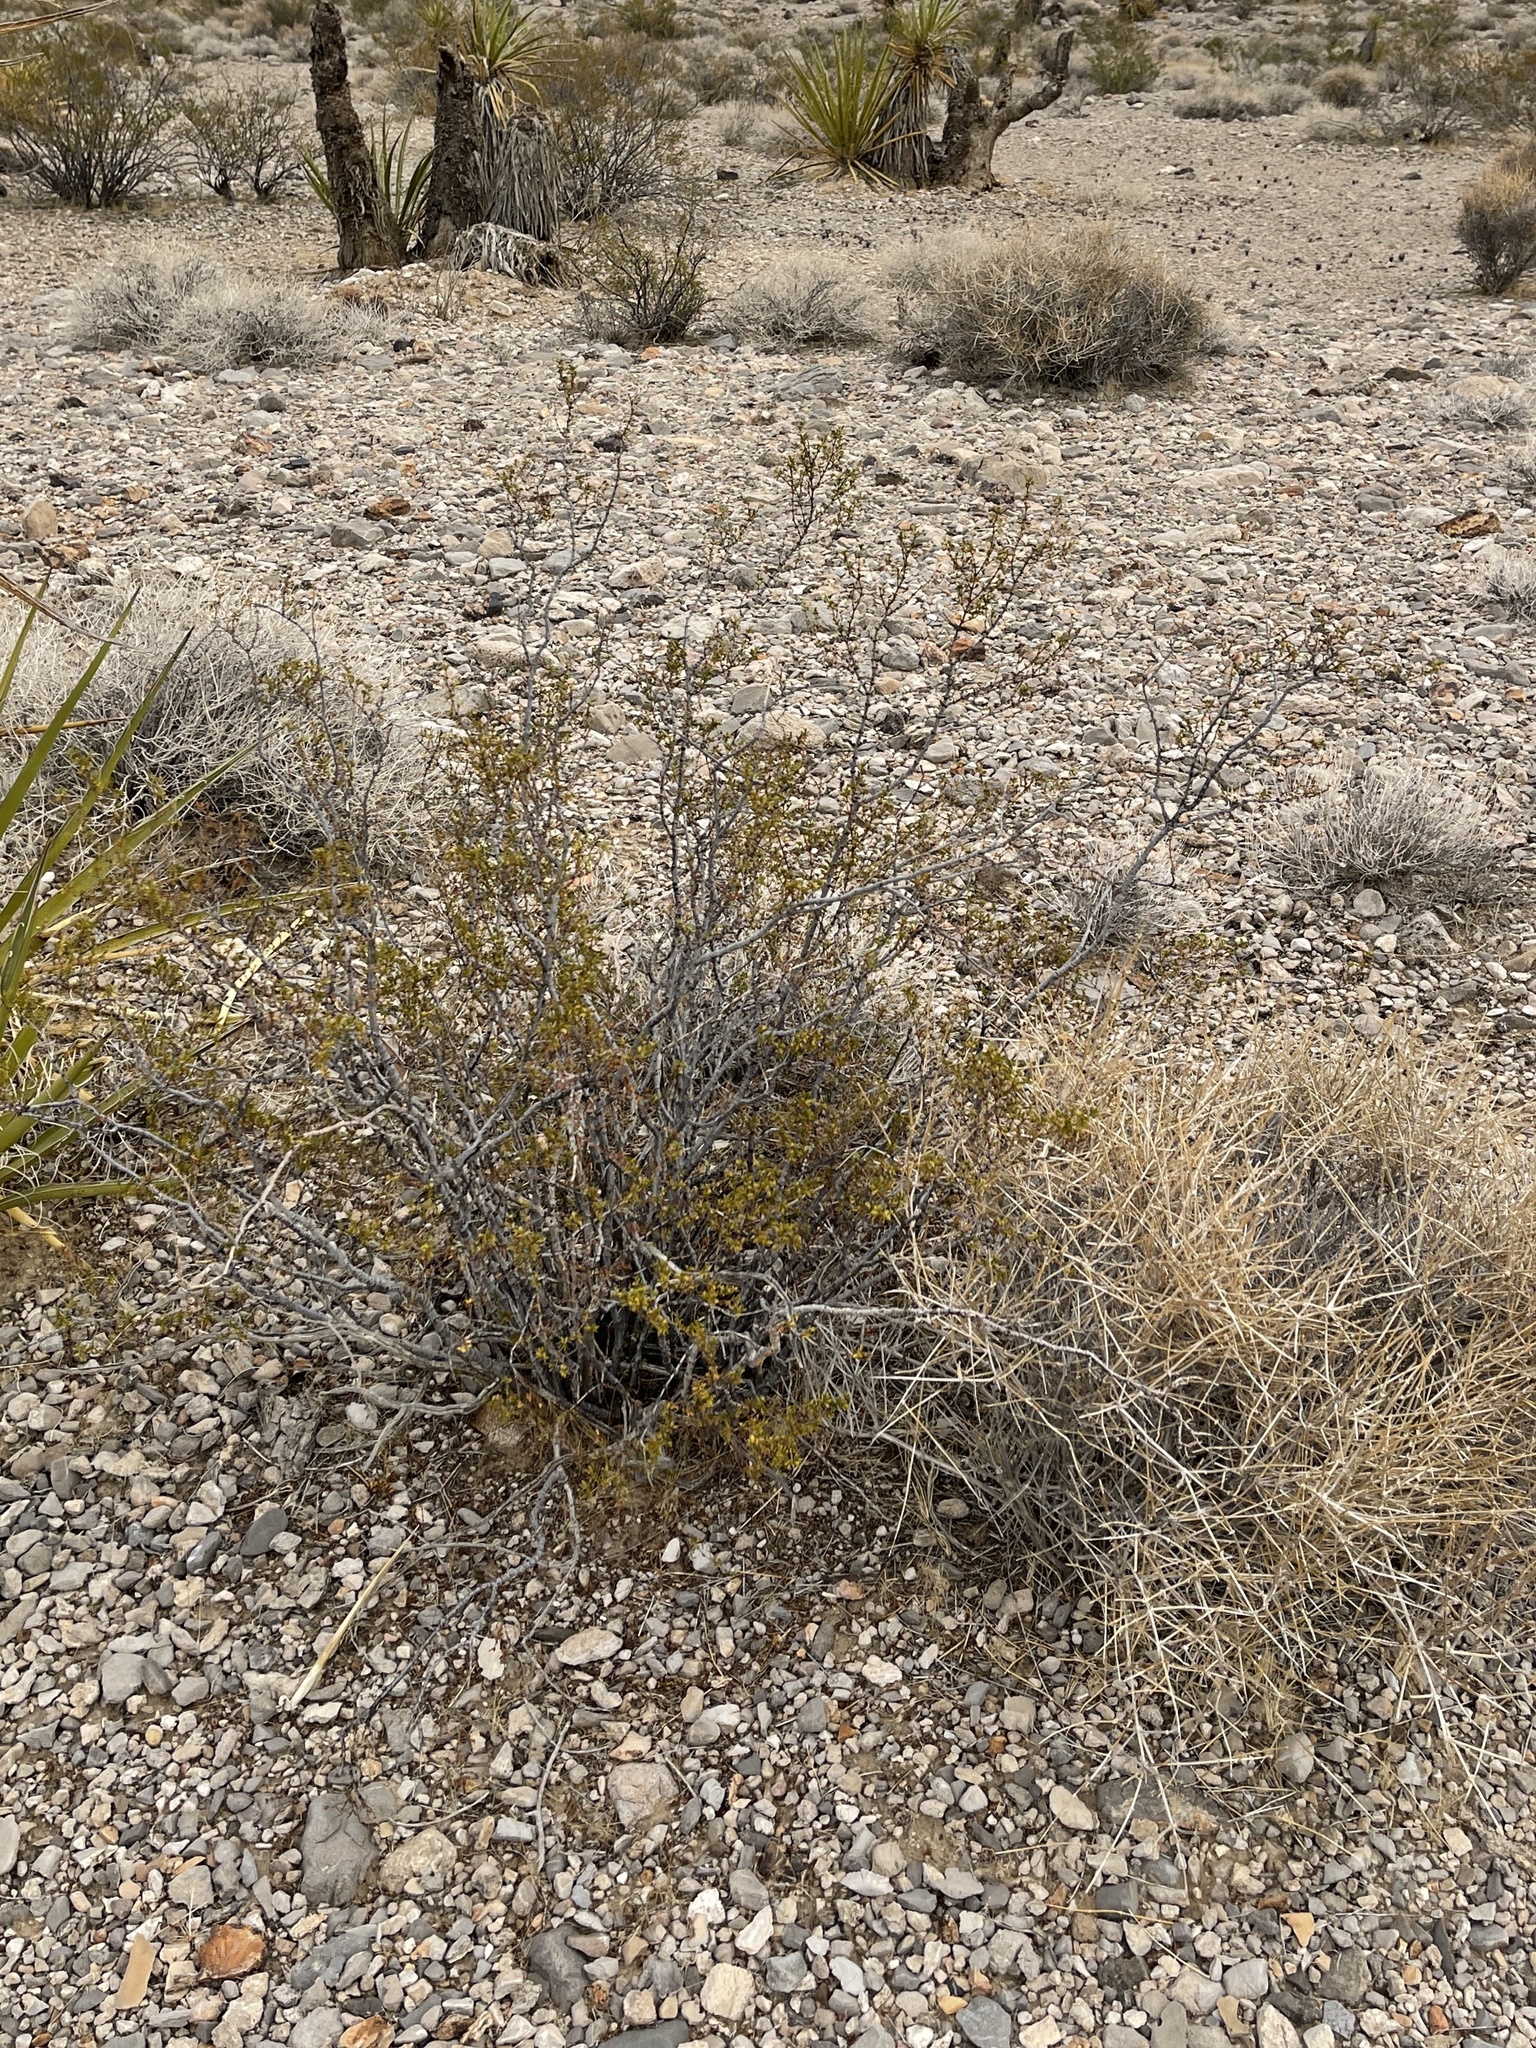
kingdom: Plantae
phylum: Tracheophyta
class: Magnoliopsida
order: Zygophyllales
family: Zygophyllaceae
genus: Larrea
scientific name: Larrea tridentata
